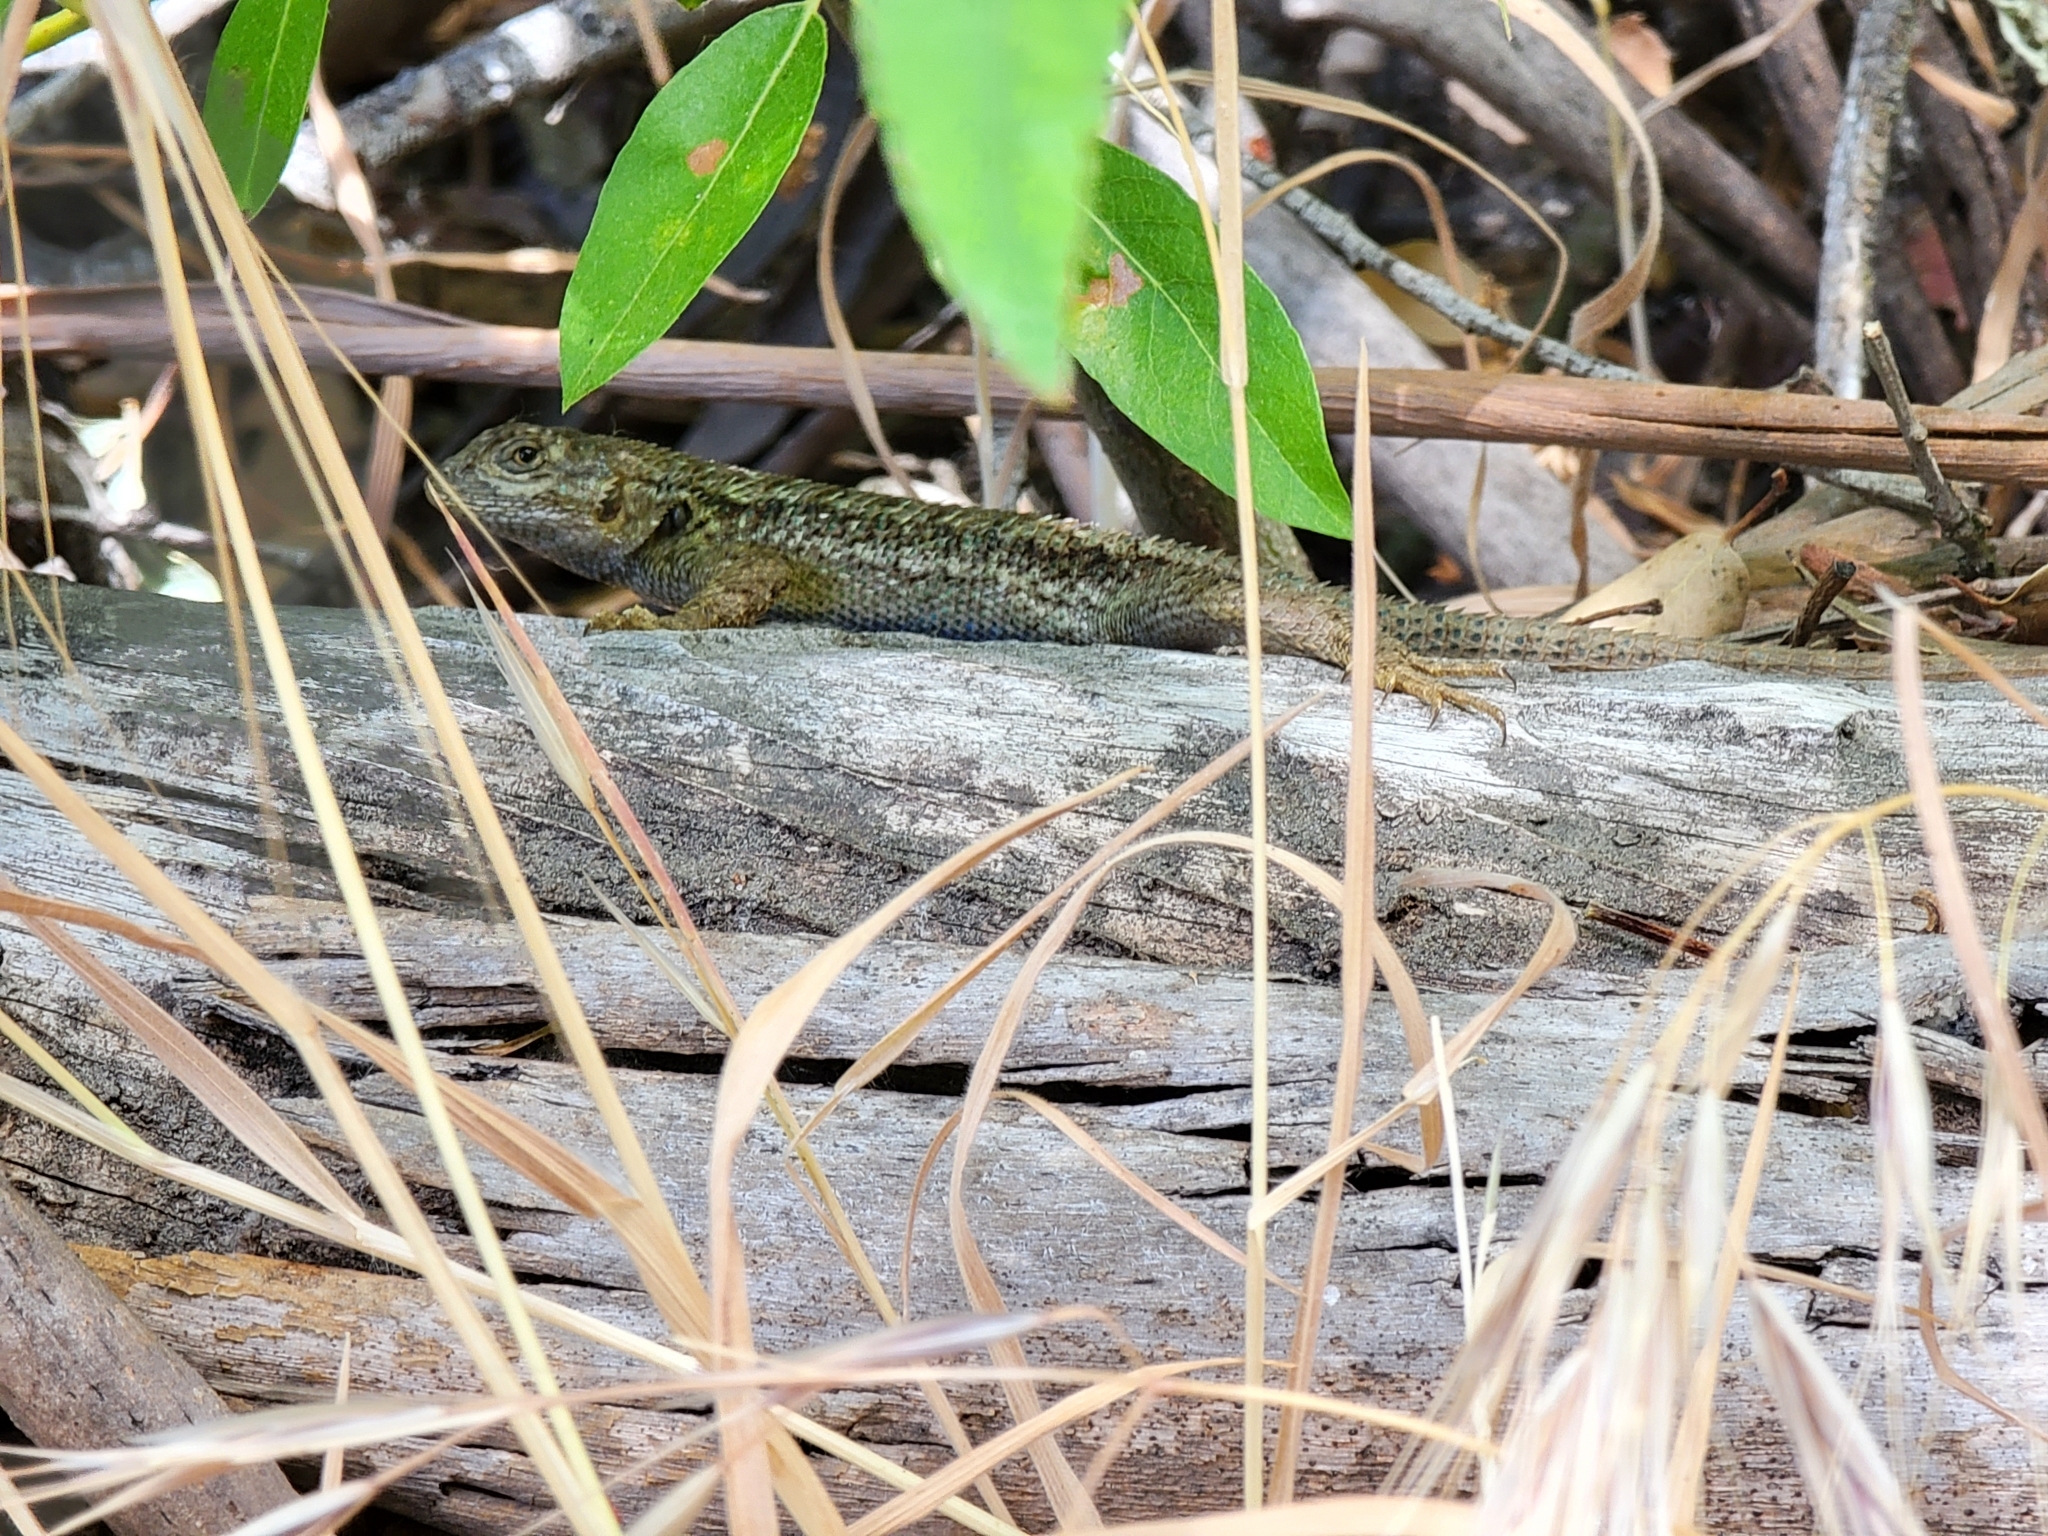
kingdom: Animalia
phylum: Chordata
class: Squamata
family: Phrynosomatidae
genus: Sceloporus
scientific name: Sceloporus occidentalis
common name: Western fence lizard
